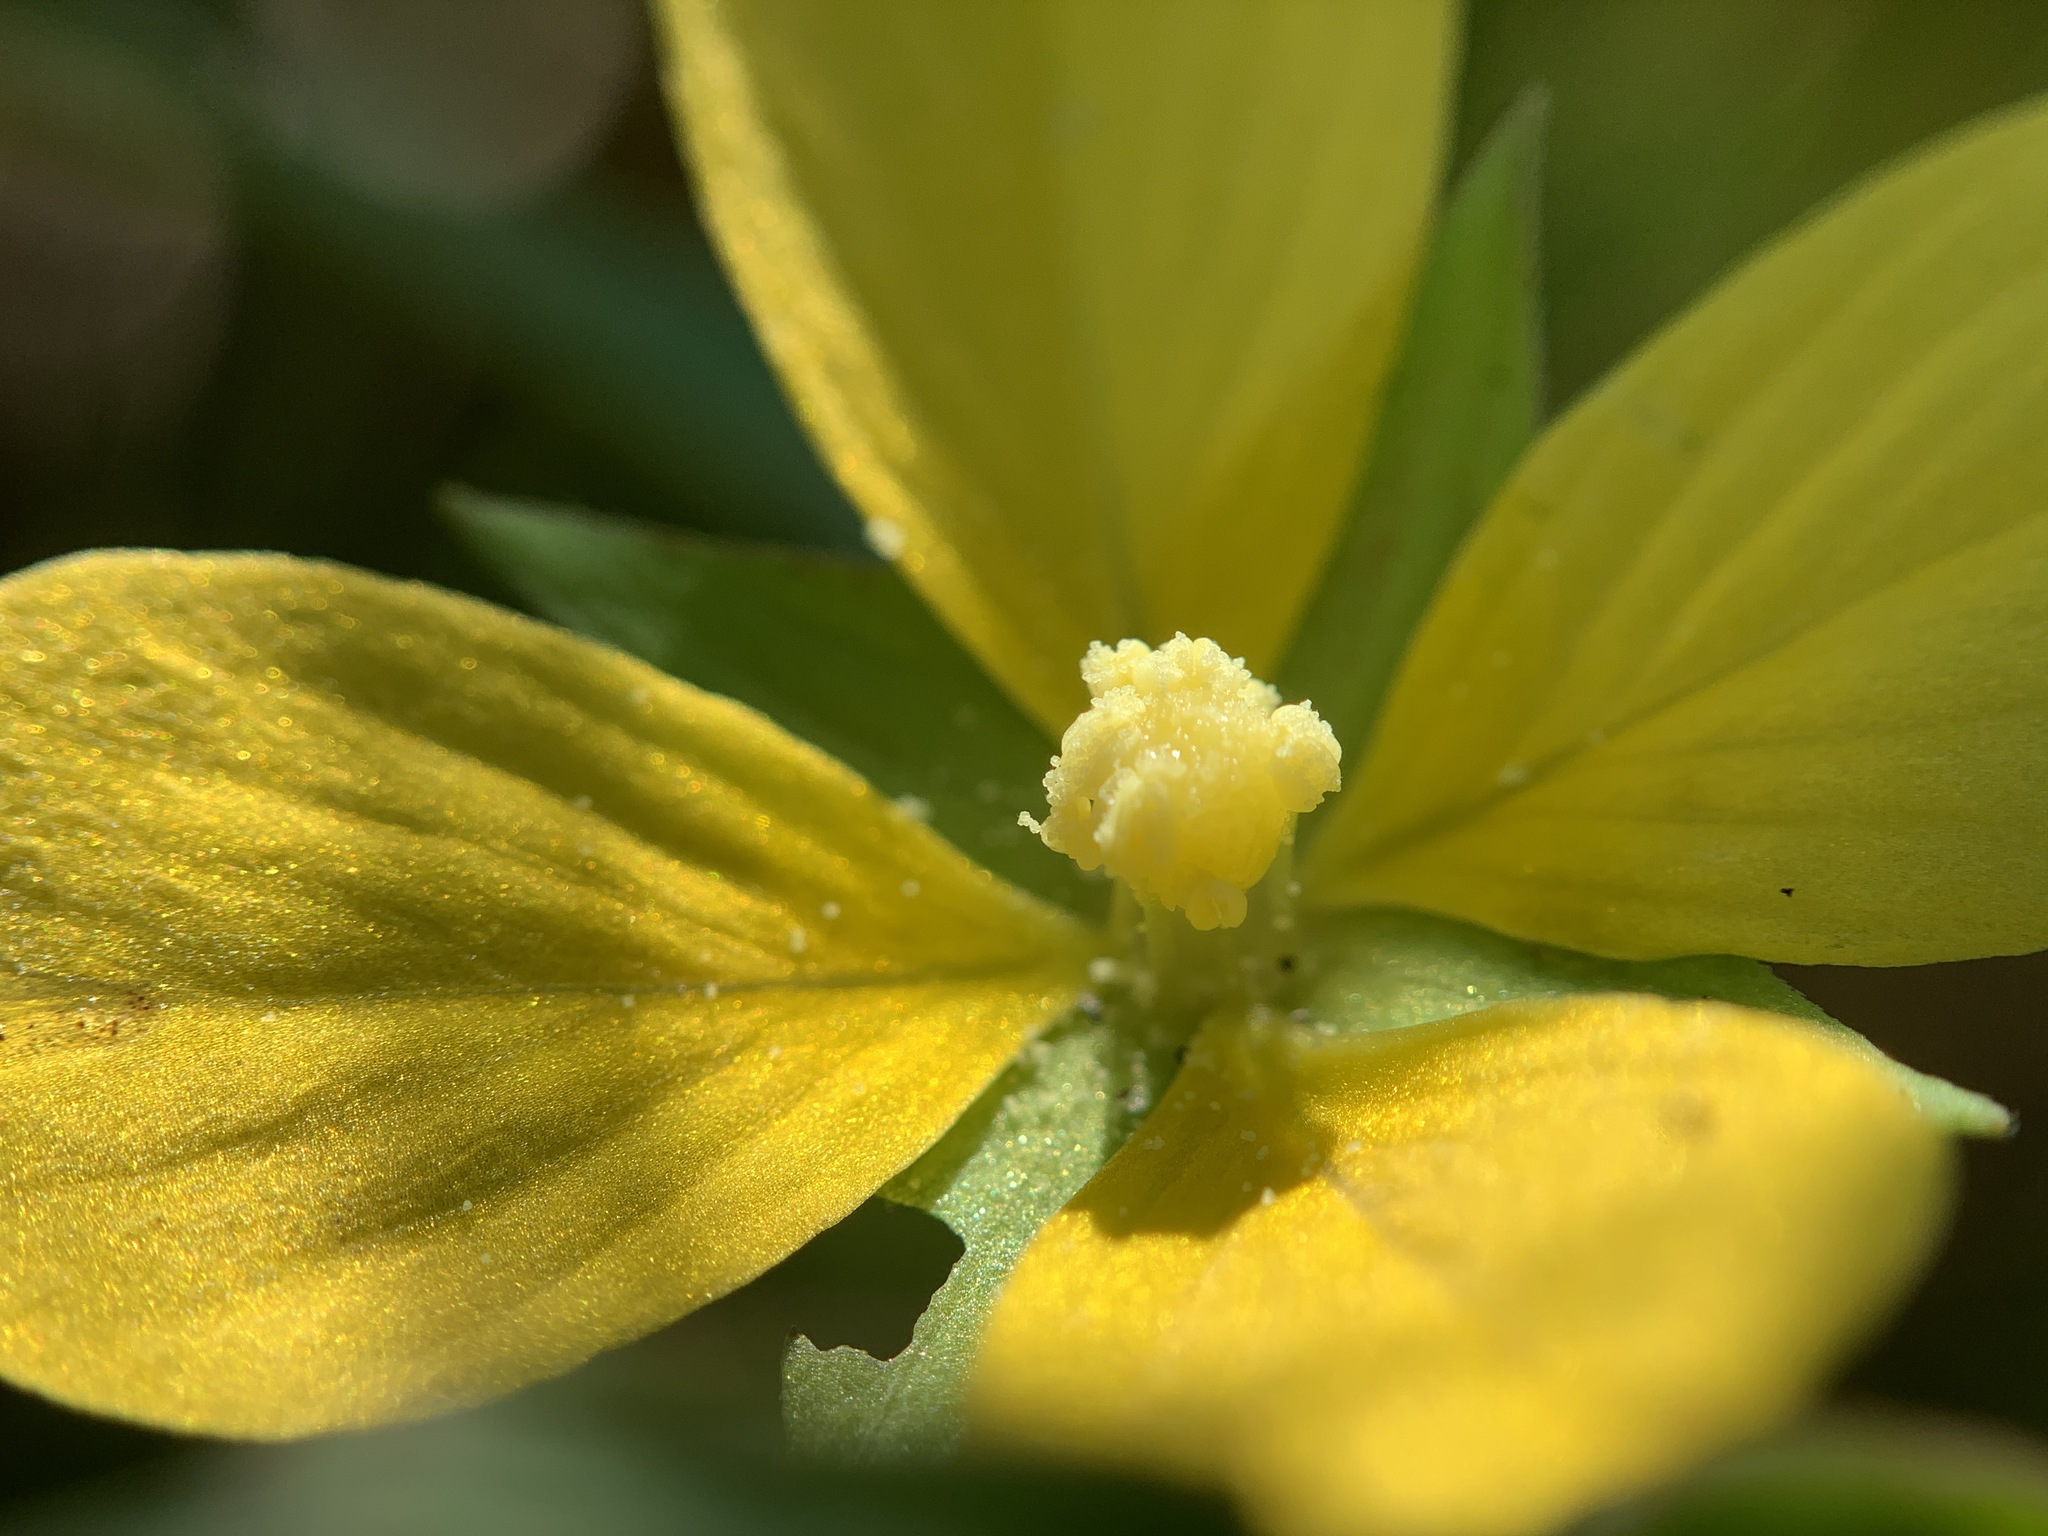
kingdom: Plantae
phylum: Tracheophyta
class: Magnoliopsida
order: Myrtales
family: Onagraceae
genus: Ludwigia
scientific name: Ludwigia octovalvis
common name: Water-primrose
